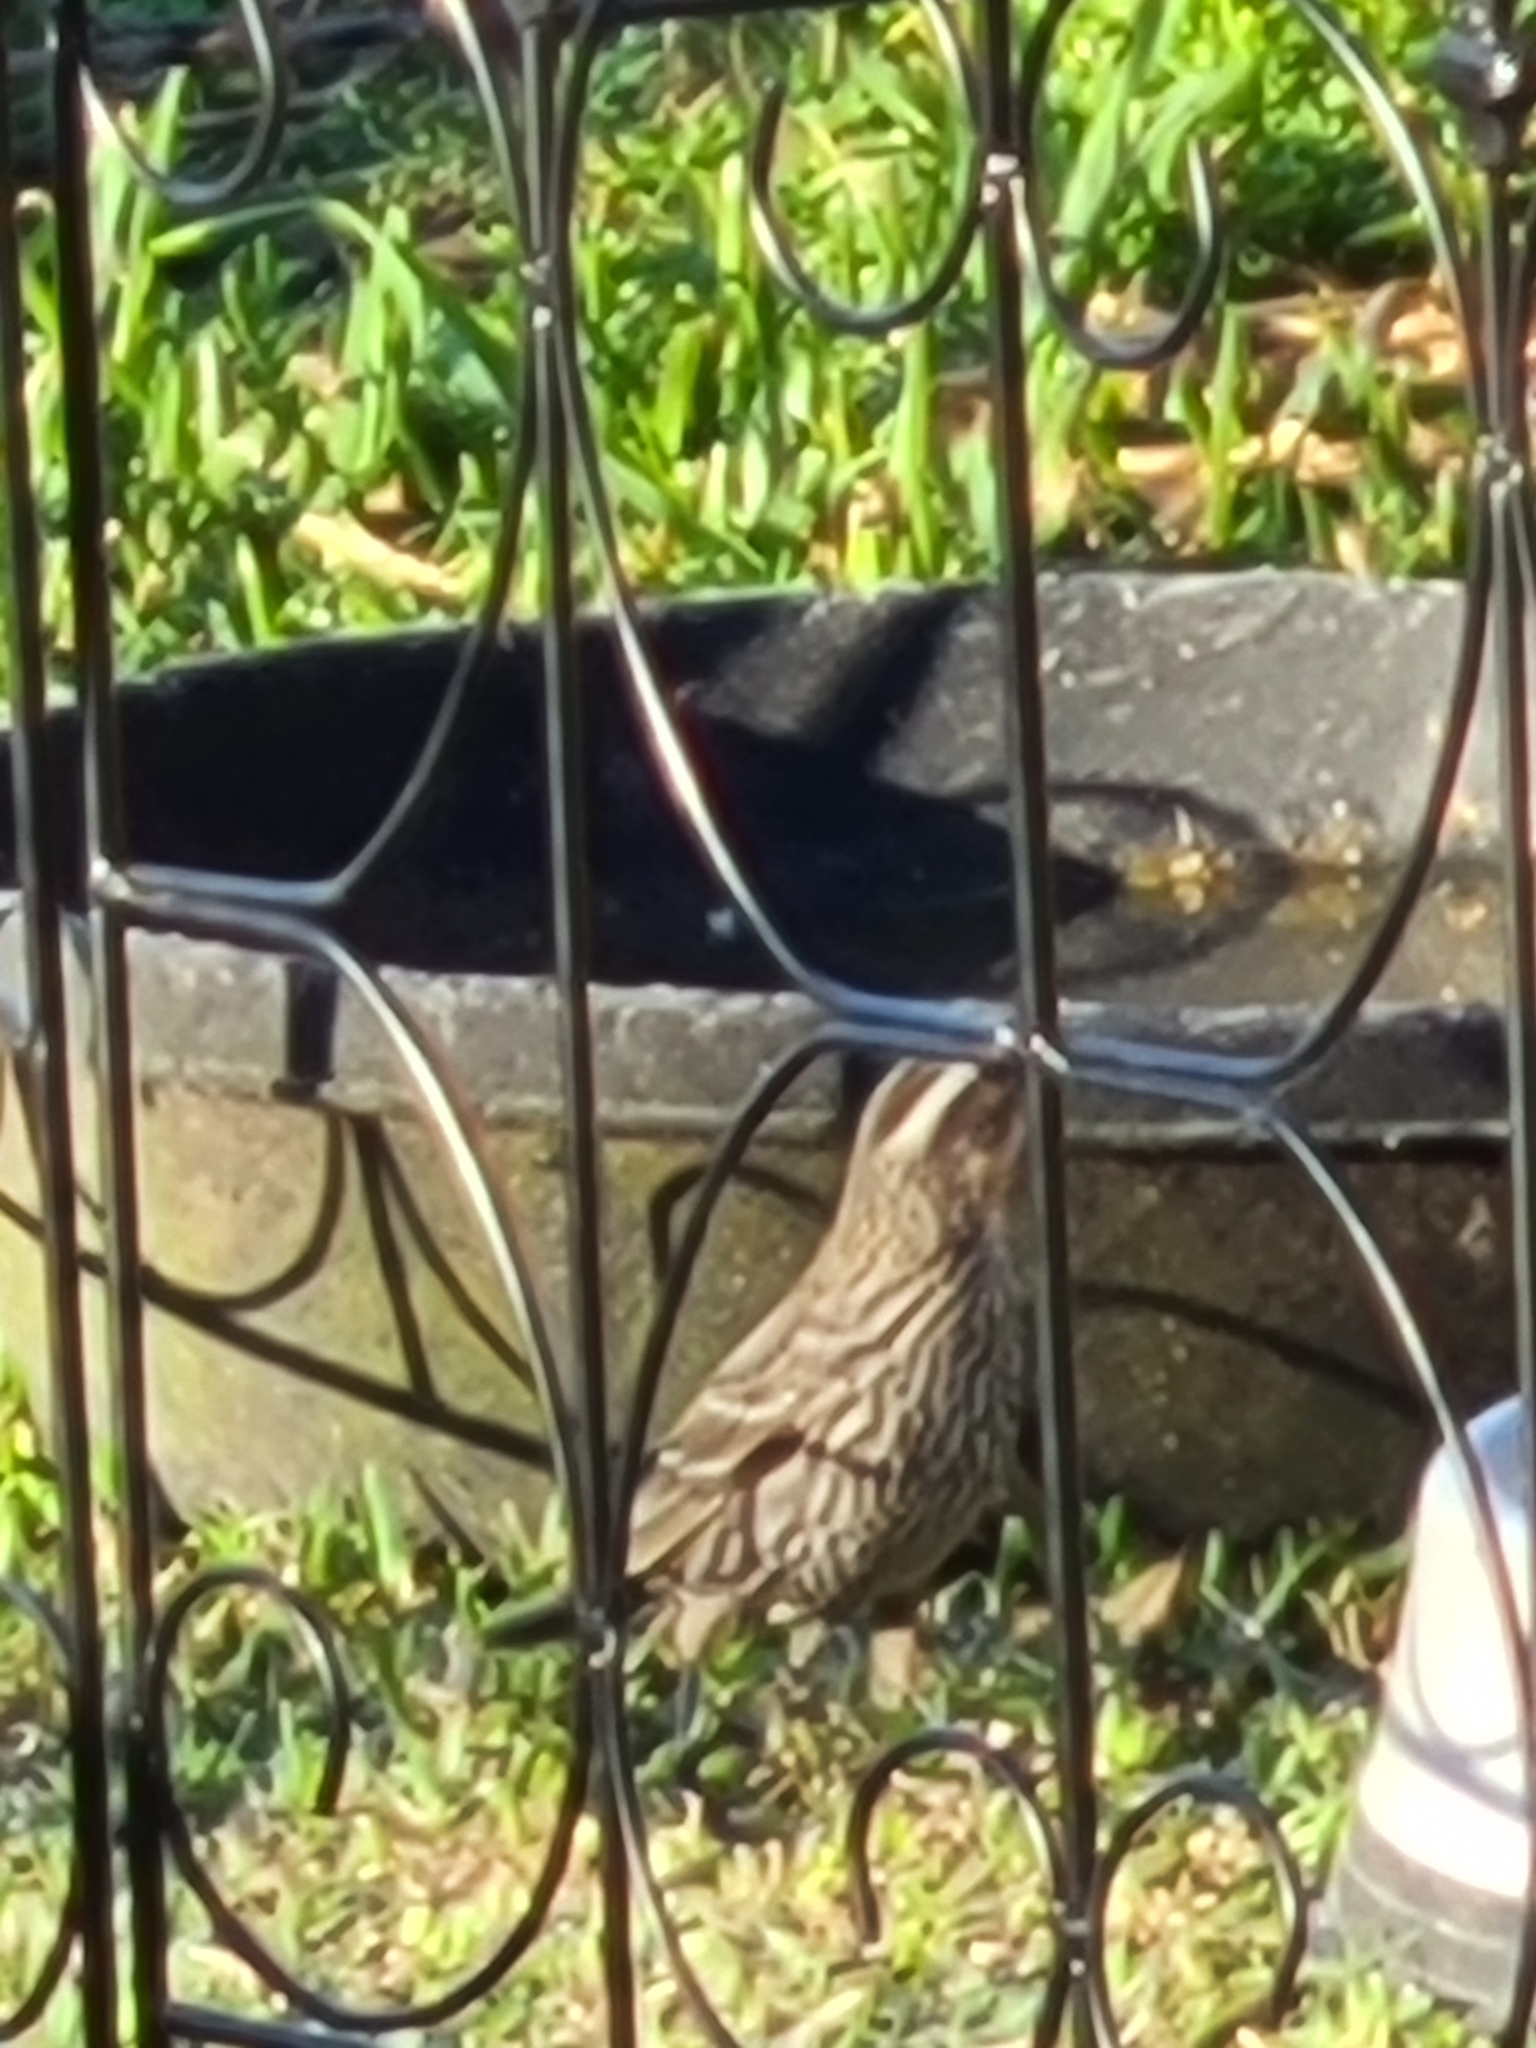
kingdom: Animalia
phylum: Chordata
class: Aves
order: Passeriformes
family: Icteridae
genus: Agelaius
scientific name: Agelaius phoeniceus
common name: Red-winged blackbird
